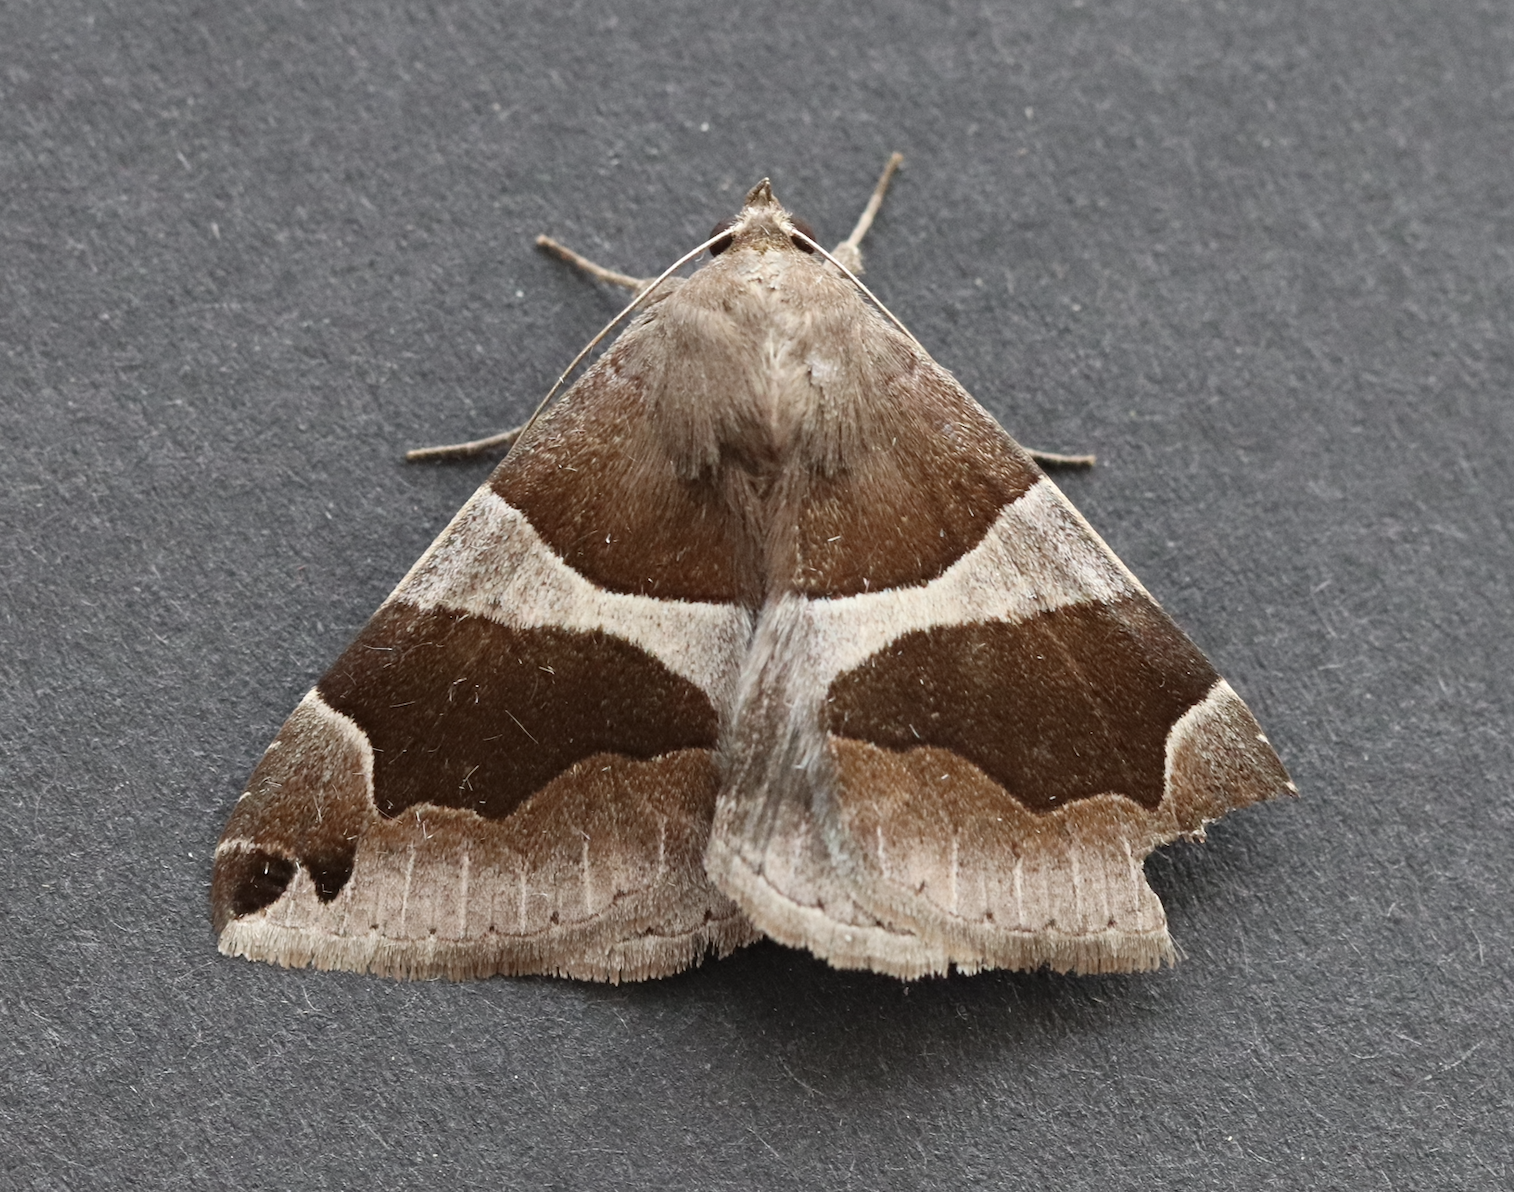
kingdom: Animalia
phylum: Arthropoda
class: Insecta
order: Lepidoptera
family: Erebidae
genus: Dysgonia
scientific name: Dysgonia algira
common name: Passenger
